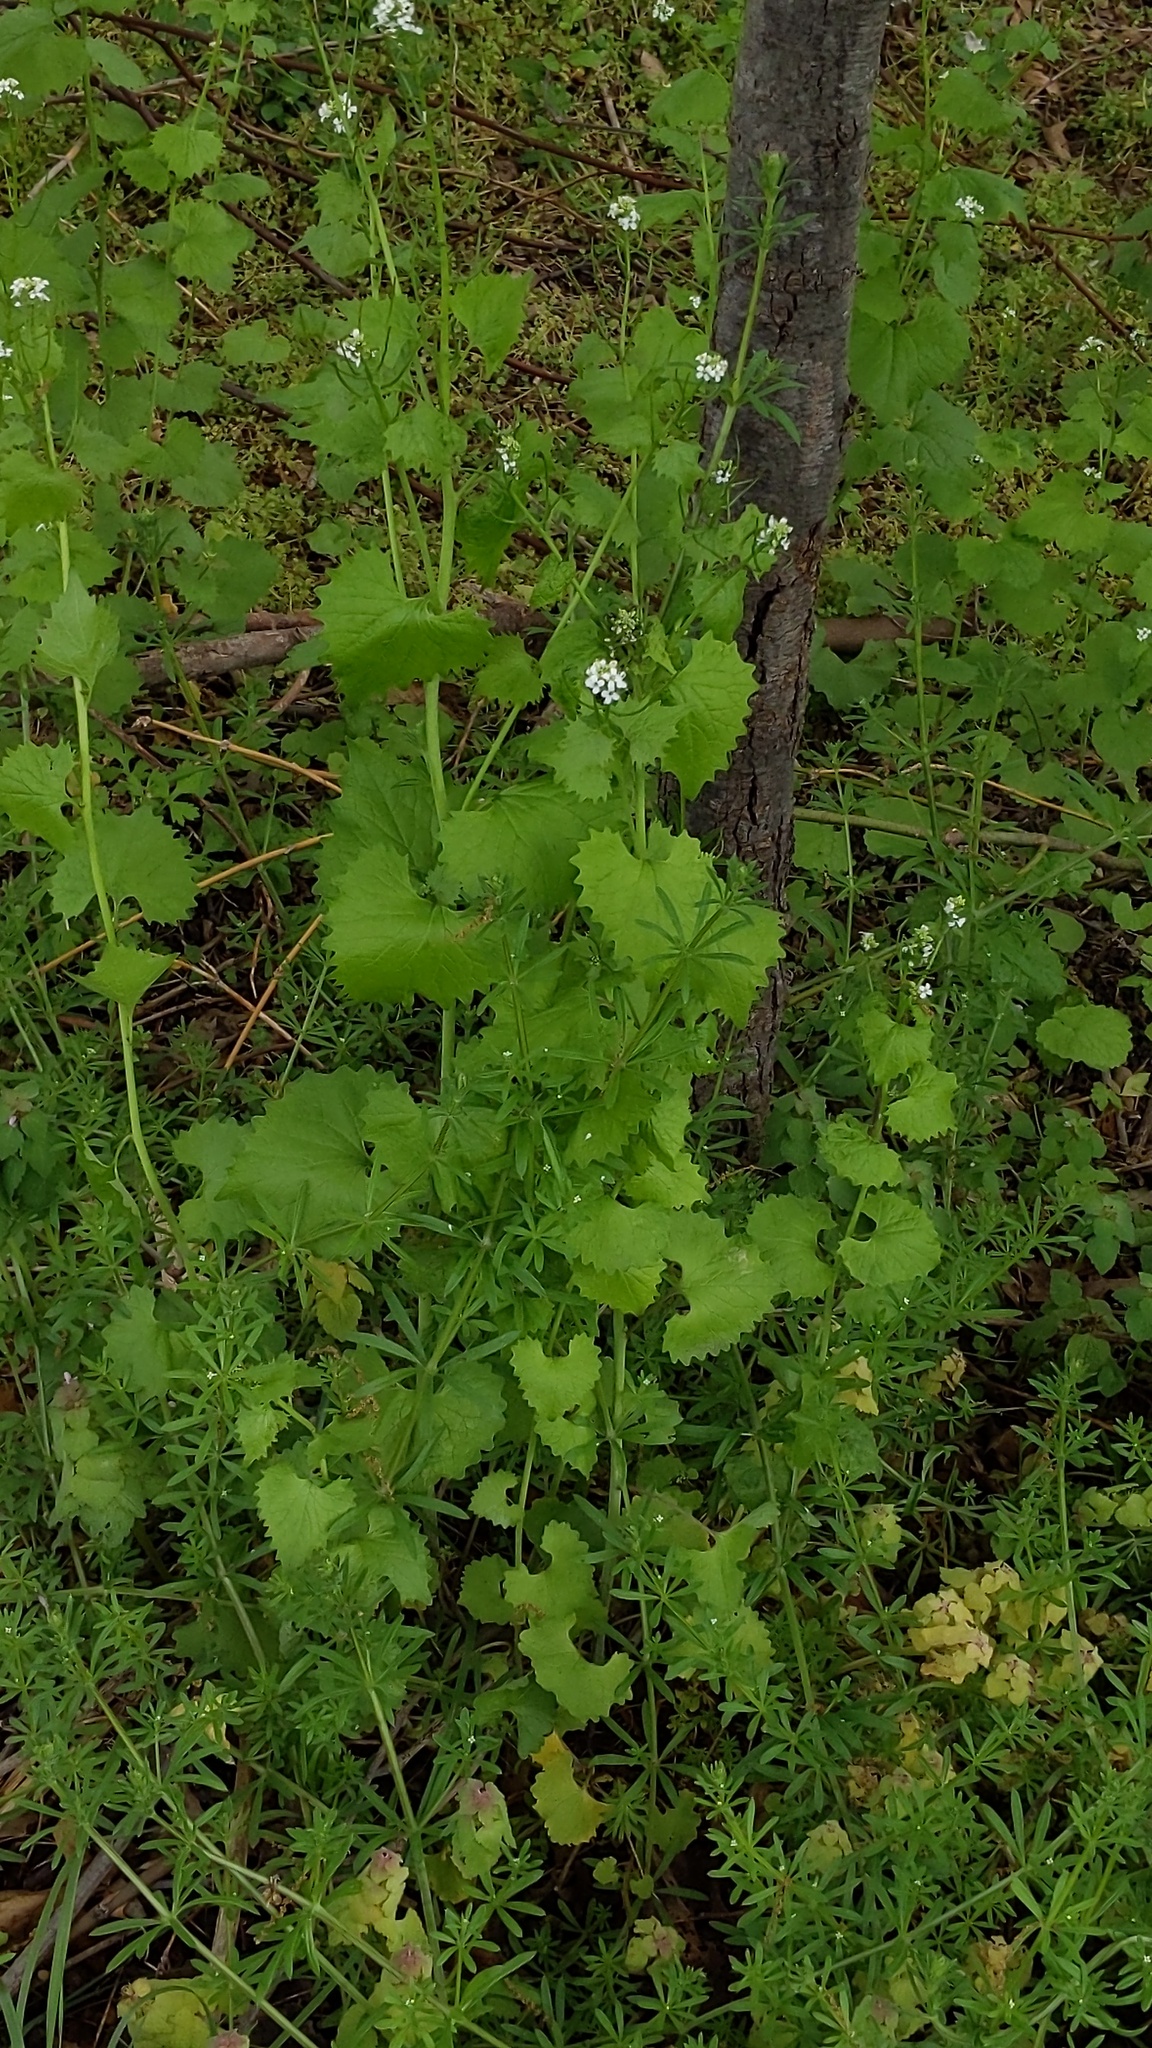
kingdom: Plantae
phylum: Tracheophyta
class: Magnoliopsida
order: Brassicales
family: Brassicaceae
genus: Alliaria
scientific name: Alliaria petiolata
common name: Garlic mustard
